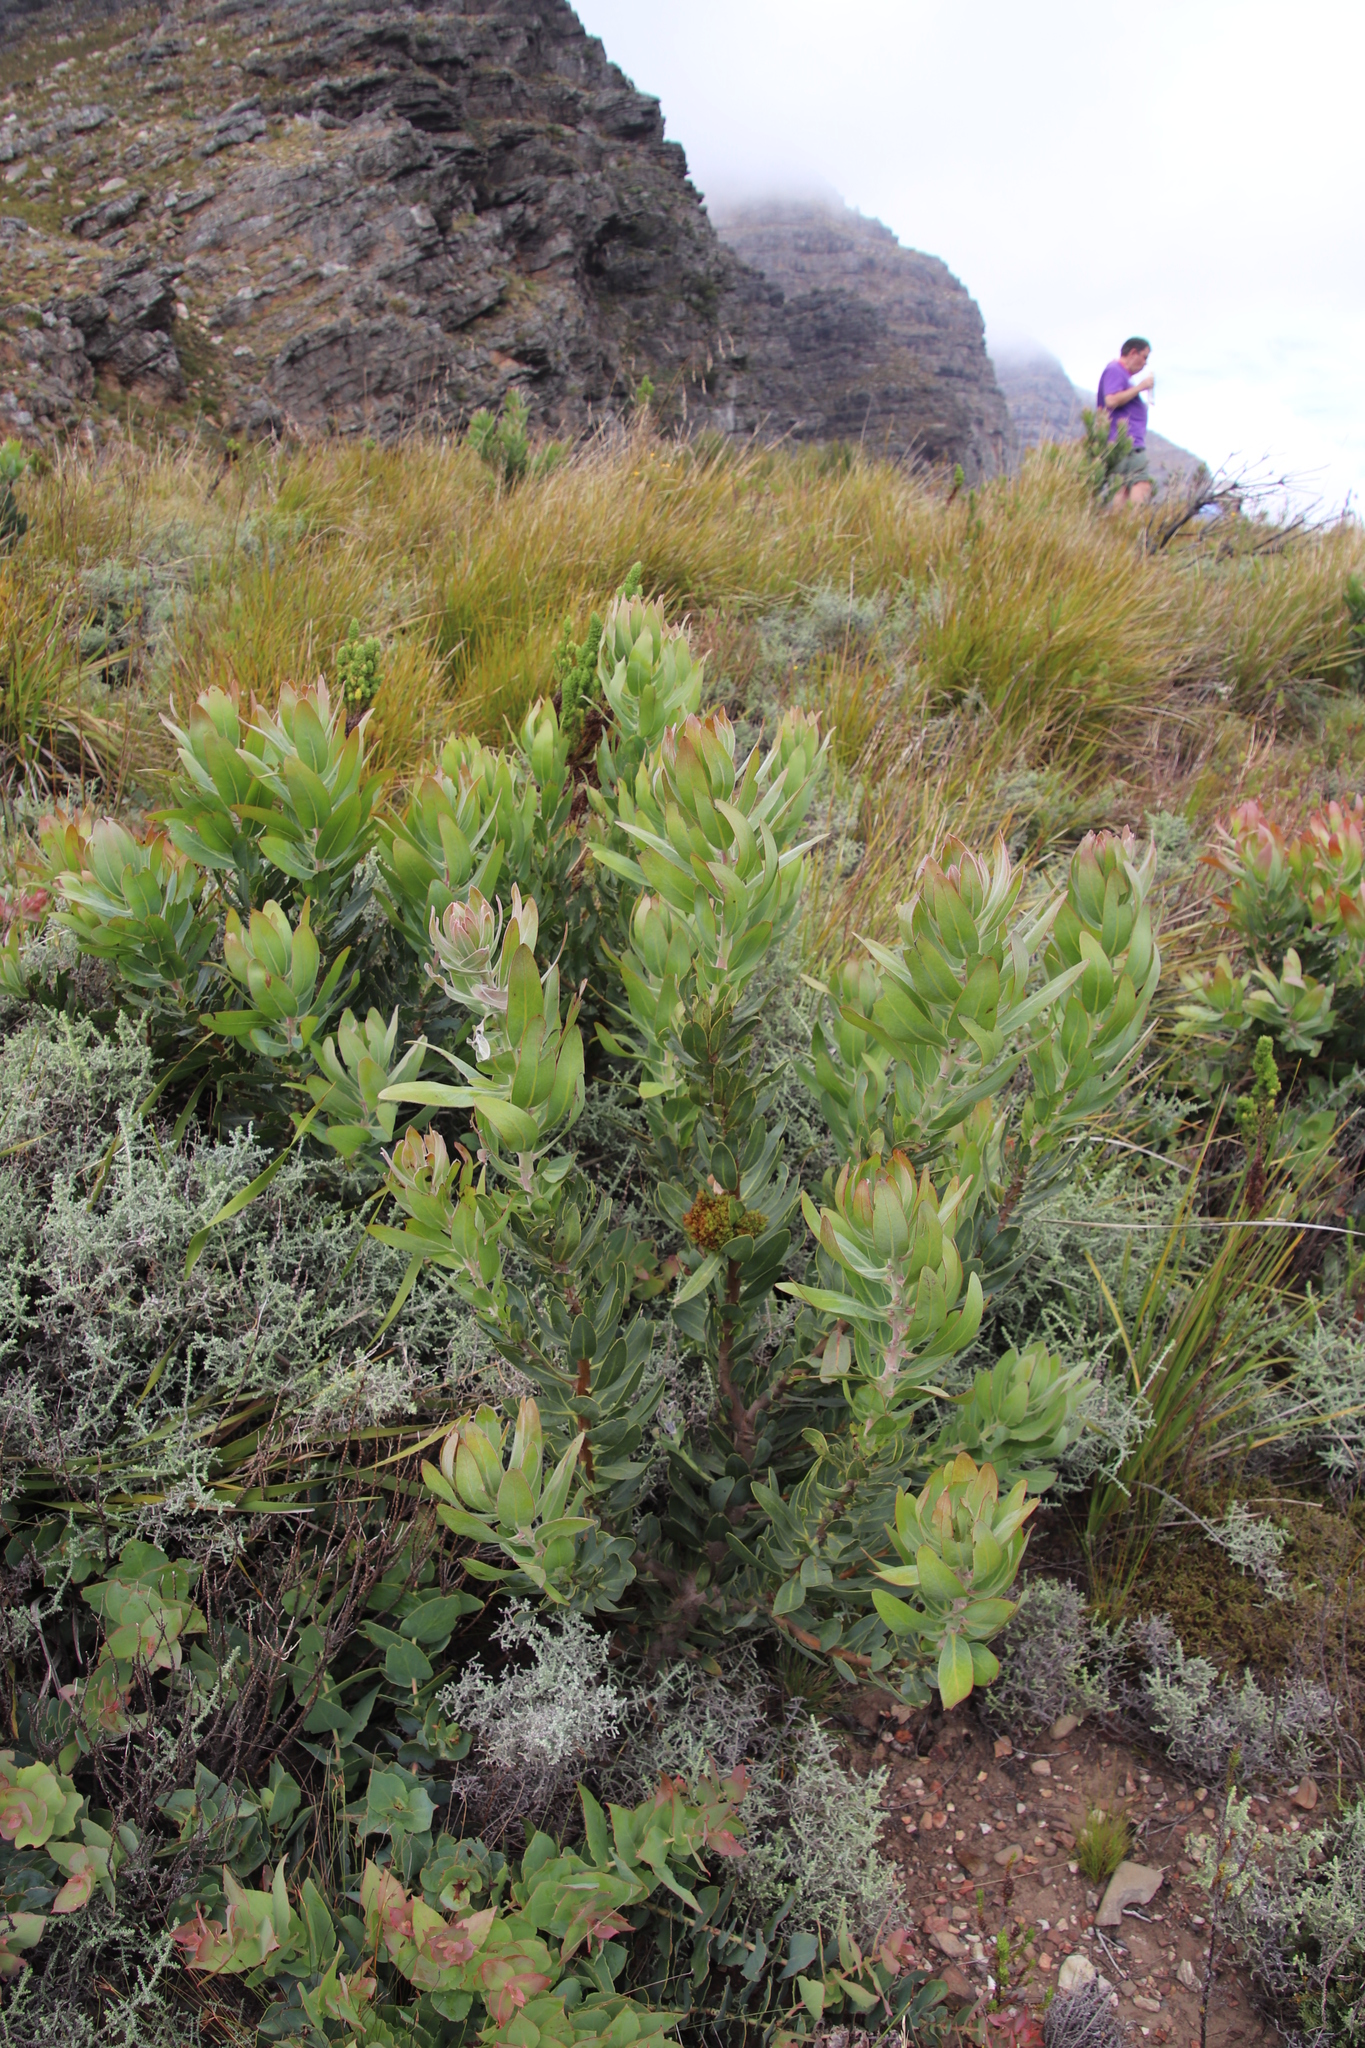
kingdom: Plantae
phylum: Tracheophyta
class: Magnoliopsida
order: Proteales
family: Proteaceae
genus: Protea
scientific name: Protea laurifolia
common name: Grey-leaf sugarbsh
